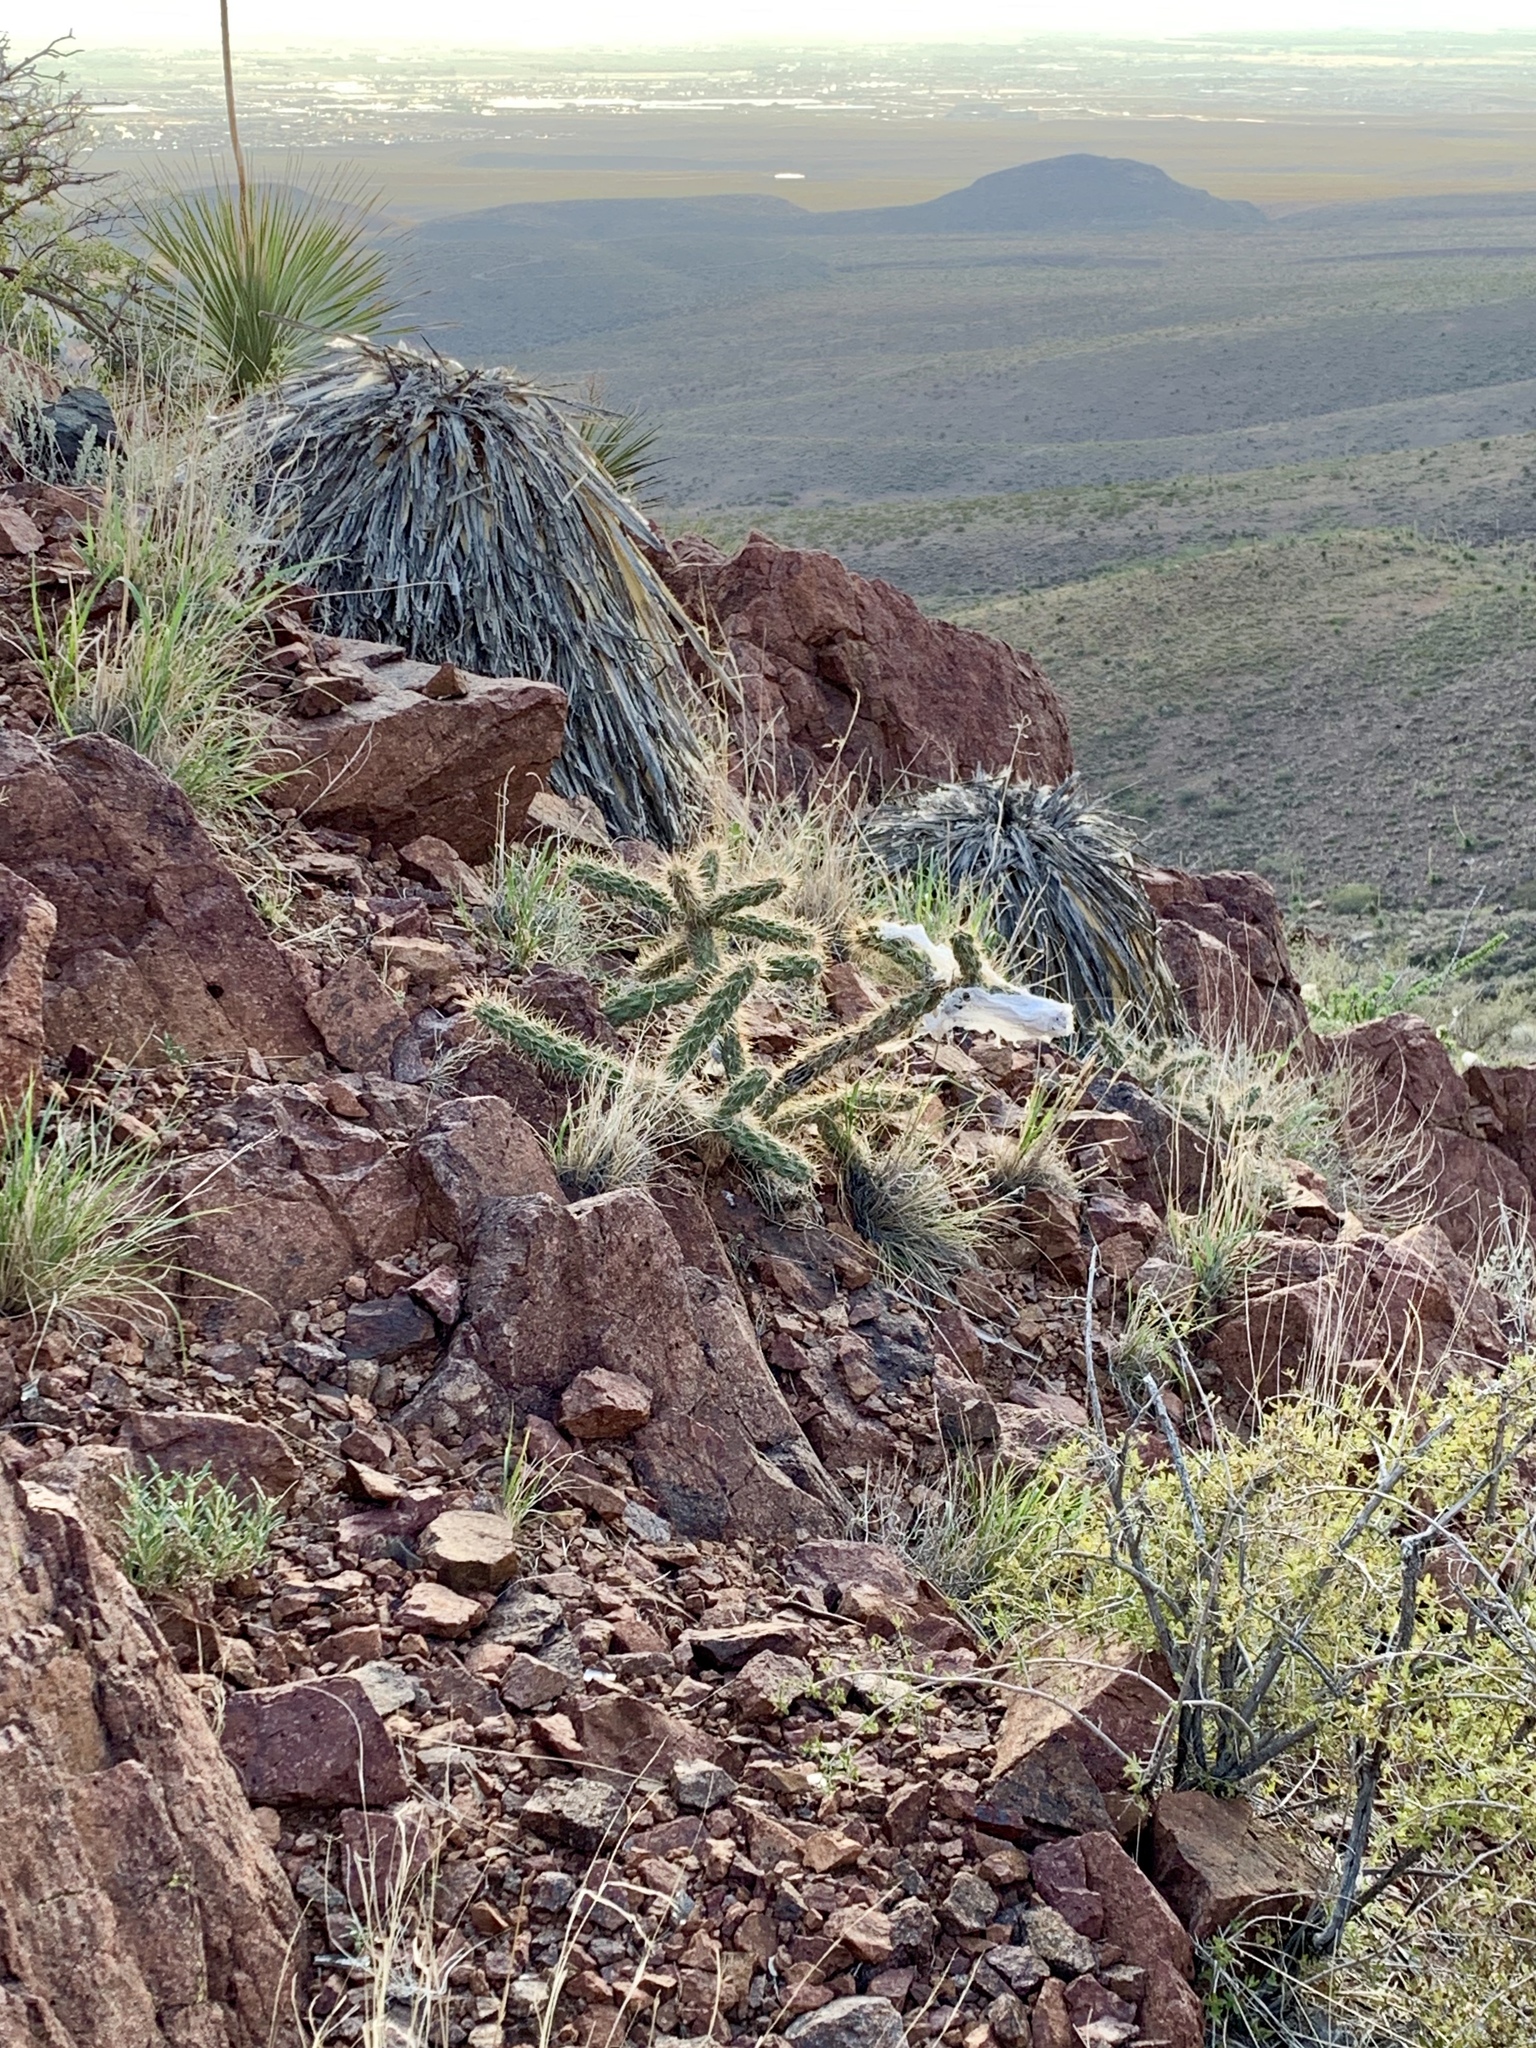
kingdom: Plantae
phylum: Tracheophyta
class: Magnoliopsida
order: Caryophyllales
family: Cactaceae
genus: Cylindropuntia
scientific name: Cylindropuntia imbricata
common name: Candelabrum cactus
